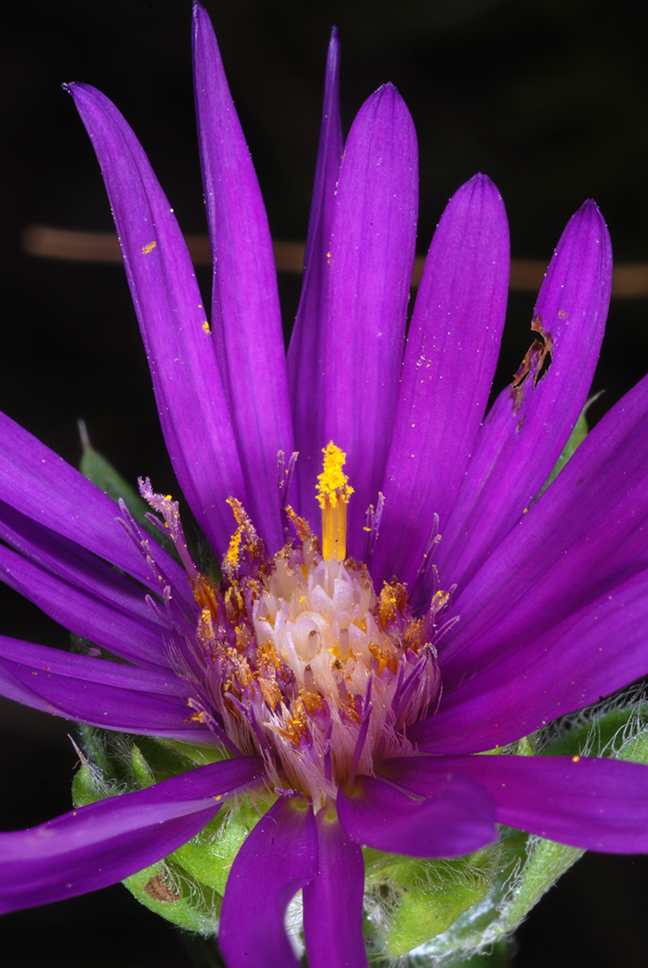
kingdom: Plantae
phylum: Tracheophyta
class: Magnoliopsida
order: Asterales
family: Asteraceae
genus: Symphyotrichum
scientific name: Symphyotrichum pratense
